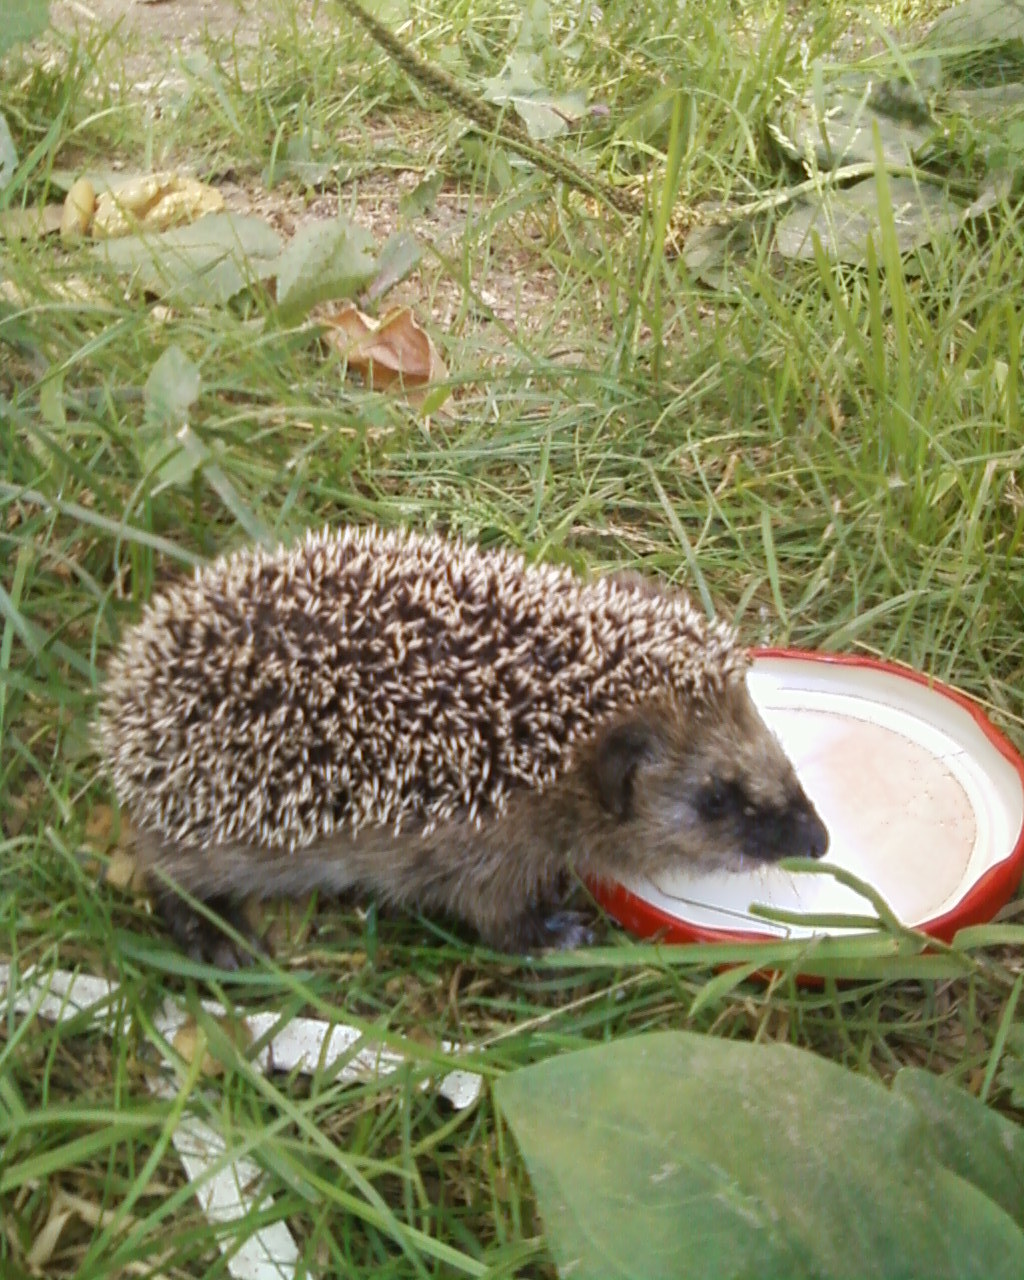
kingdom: Animalia
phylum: Chordata
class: Mammalia
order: Erinaceomorpha
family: Erinaceidae
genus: Erinaceus
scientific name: Erinaceus europaeus
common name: West european hedgehog
